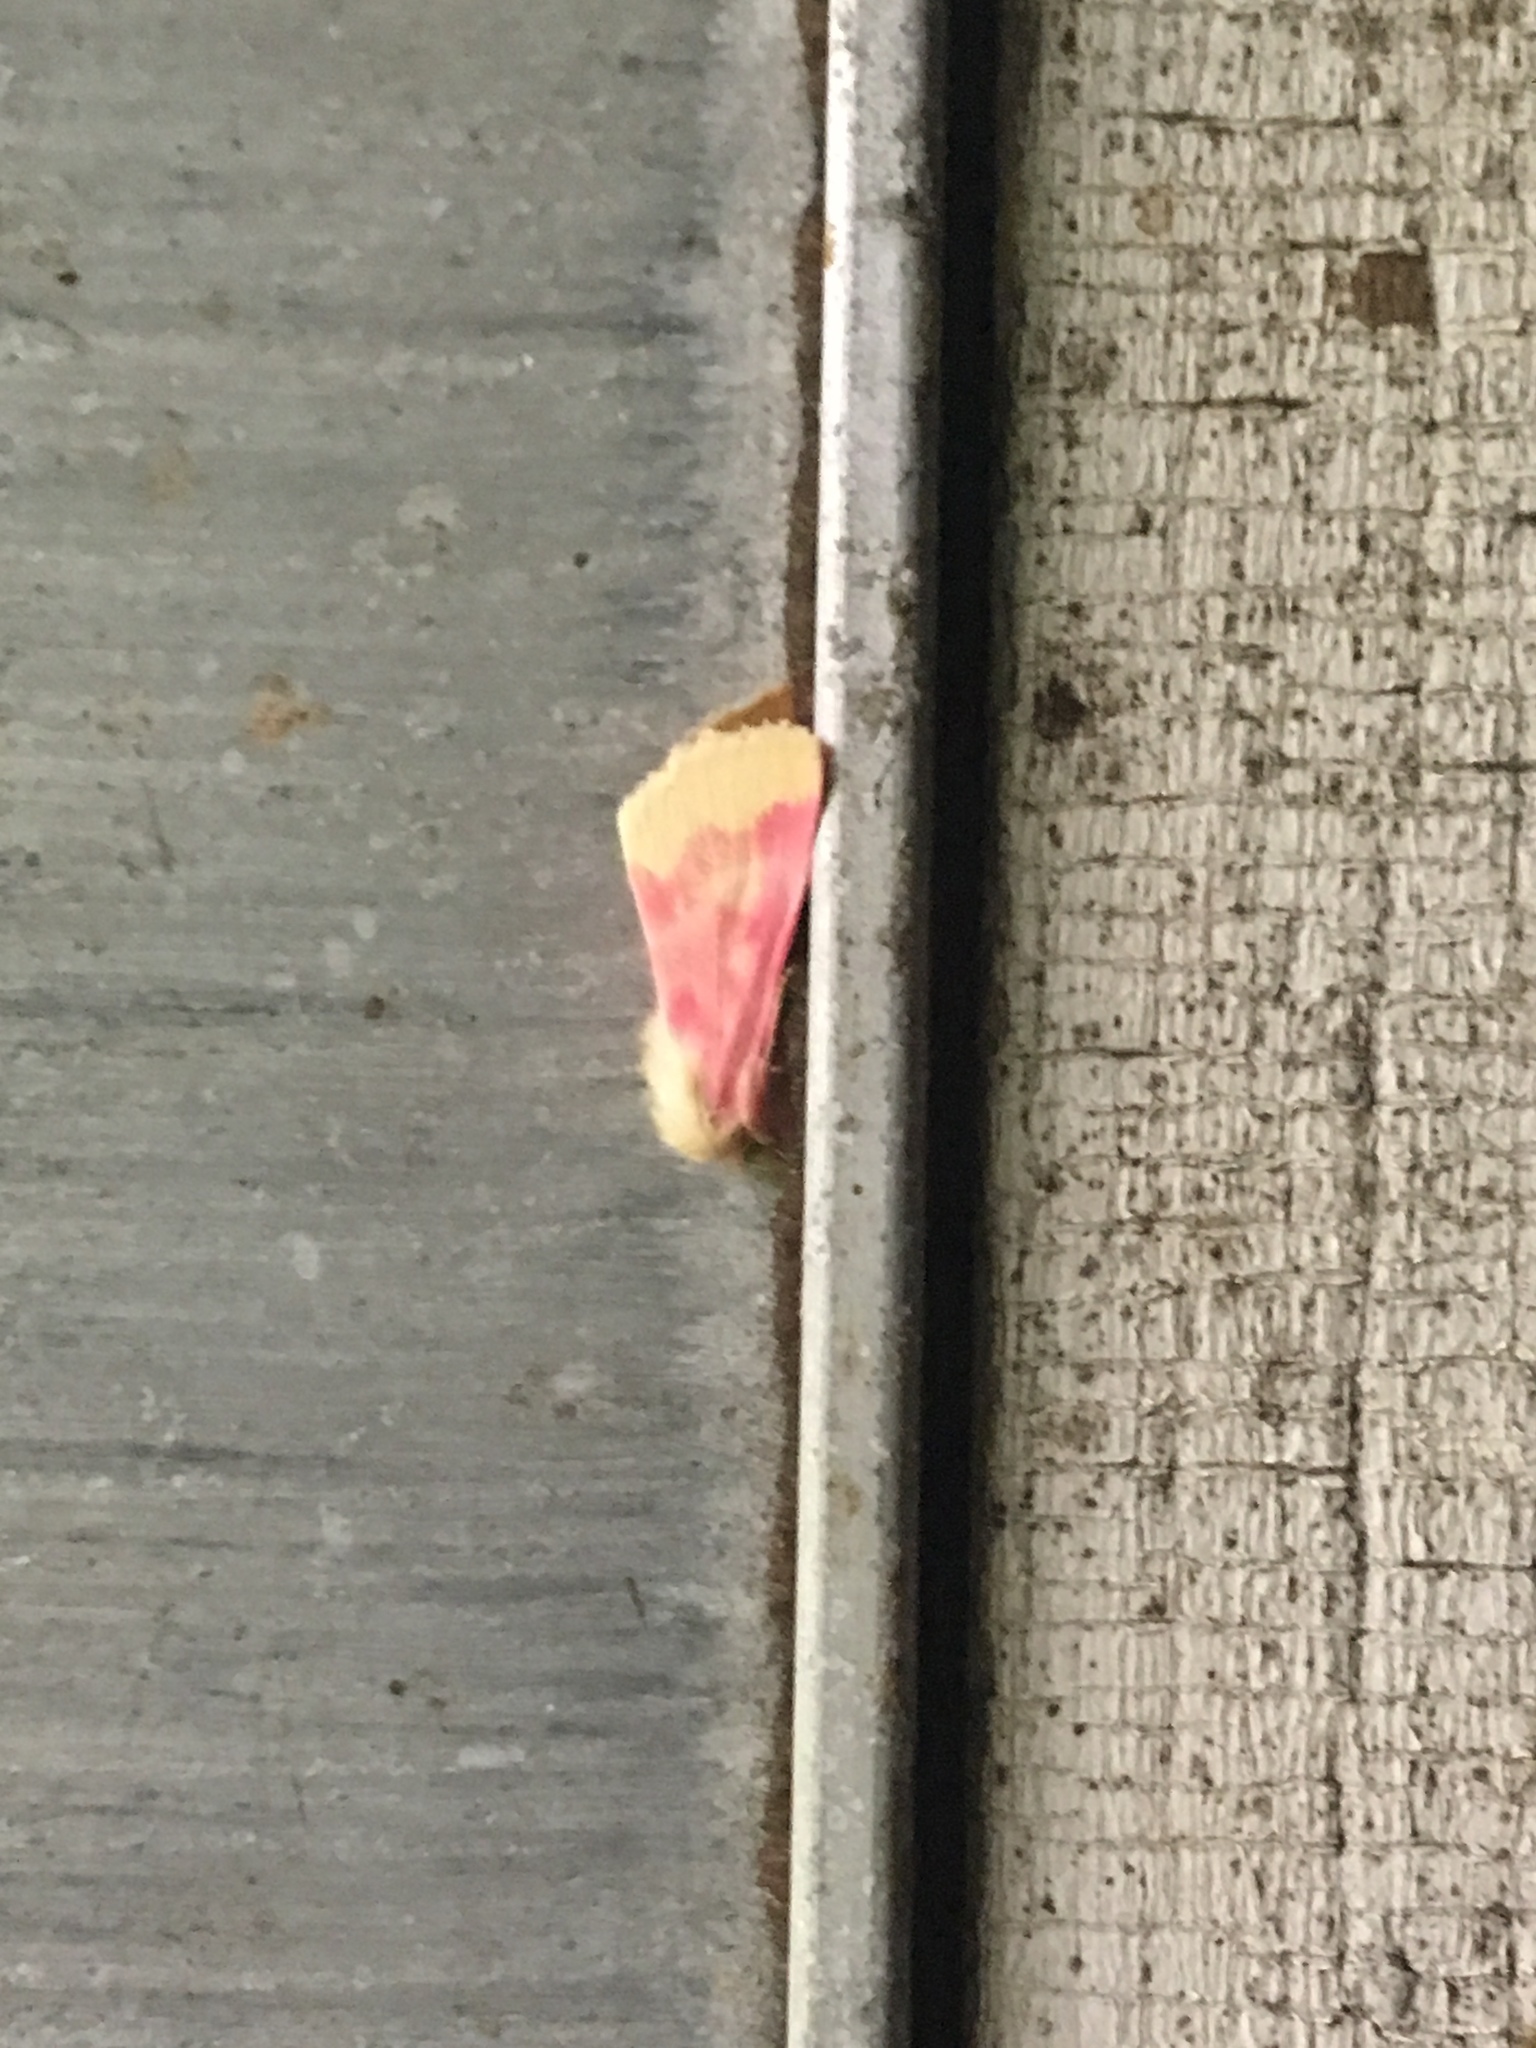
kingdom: Animalia
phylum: Arthropoda
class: Insecta
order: Lepidoptera
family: Noctuidae
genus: Schinia
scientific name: Schinia florida
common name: Primrose moth
